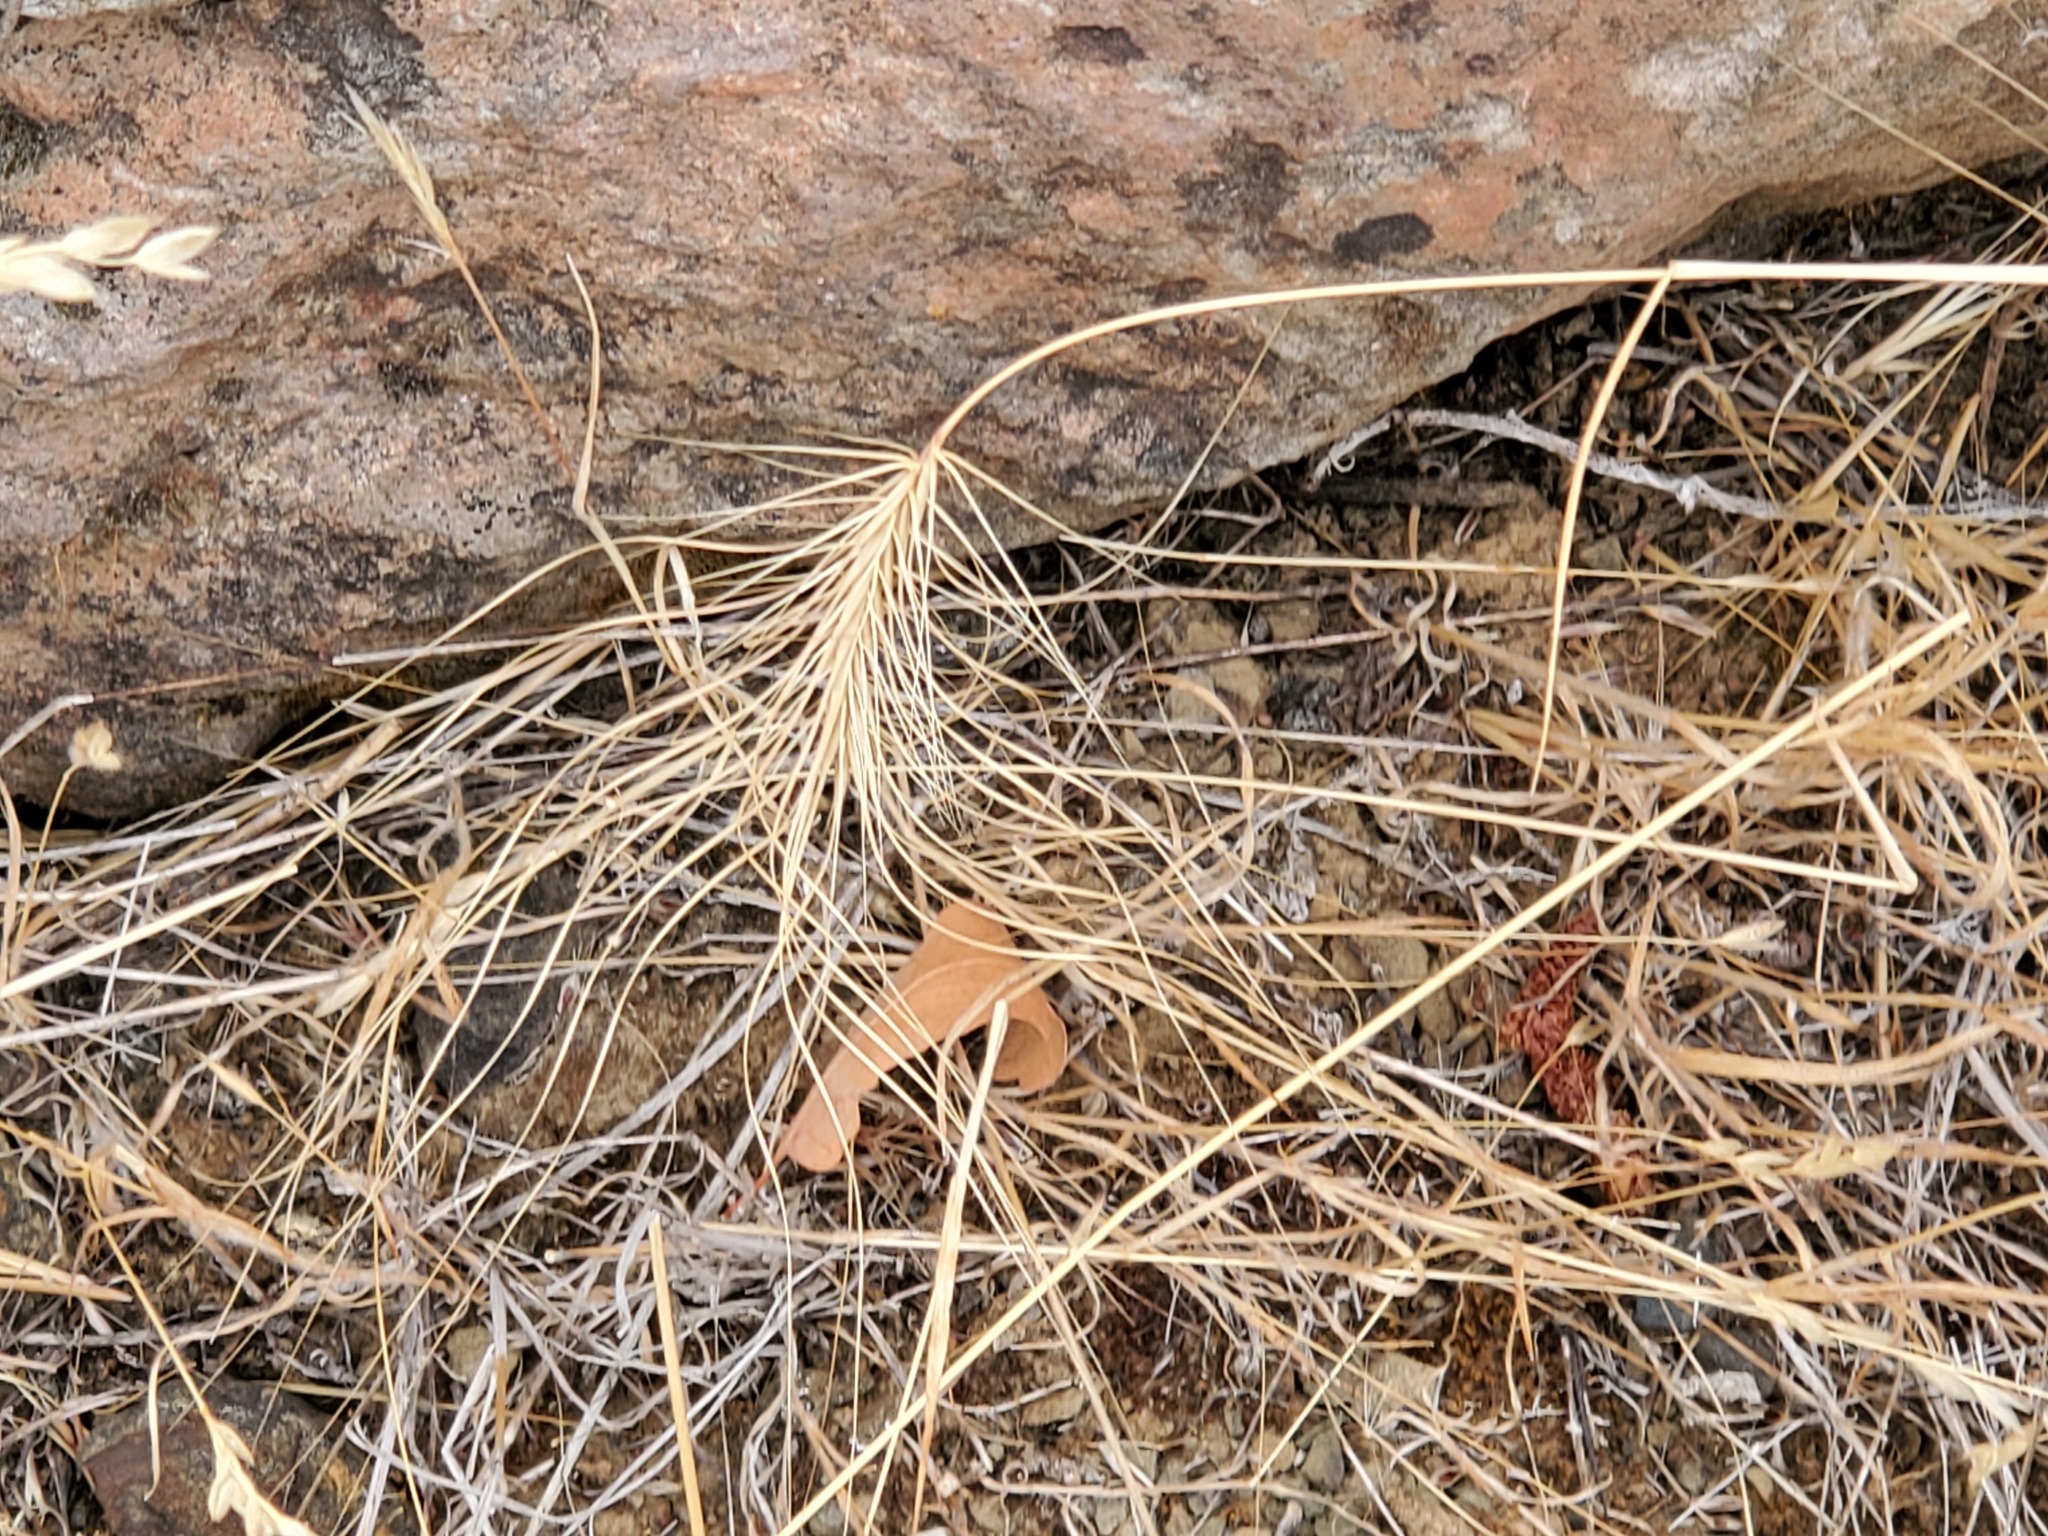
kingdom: Plantae
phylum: Tracheophyta
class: Liliopsida
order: Poales
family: Poaceae
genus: Taeniatherum
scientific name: Taeniatherum caput-medusae
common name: Medusahead
